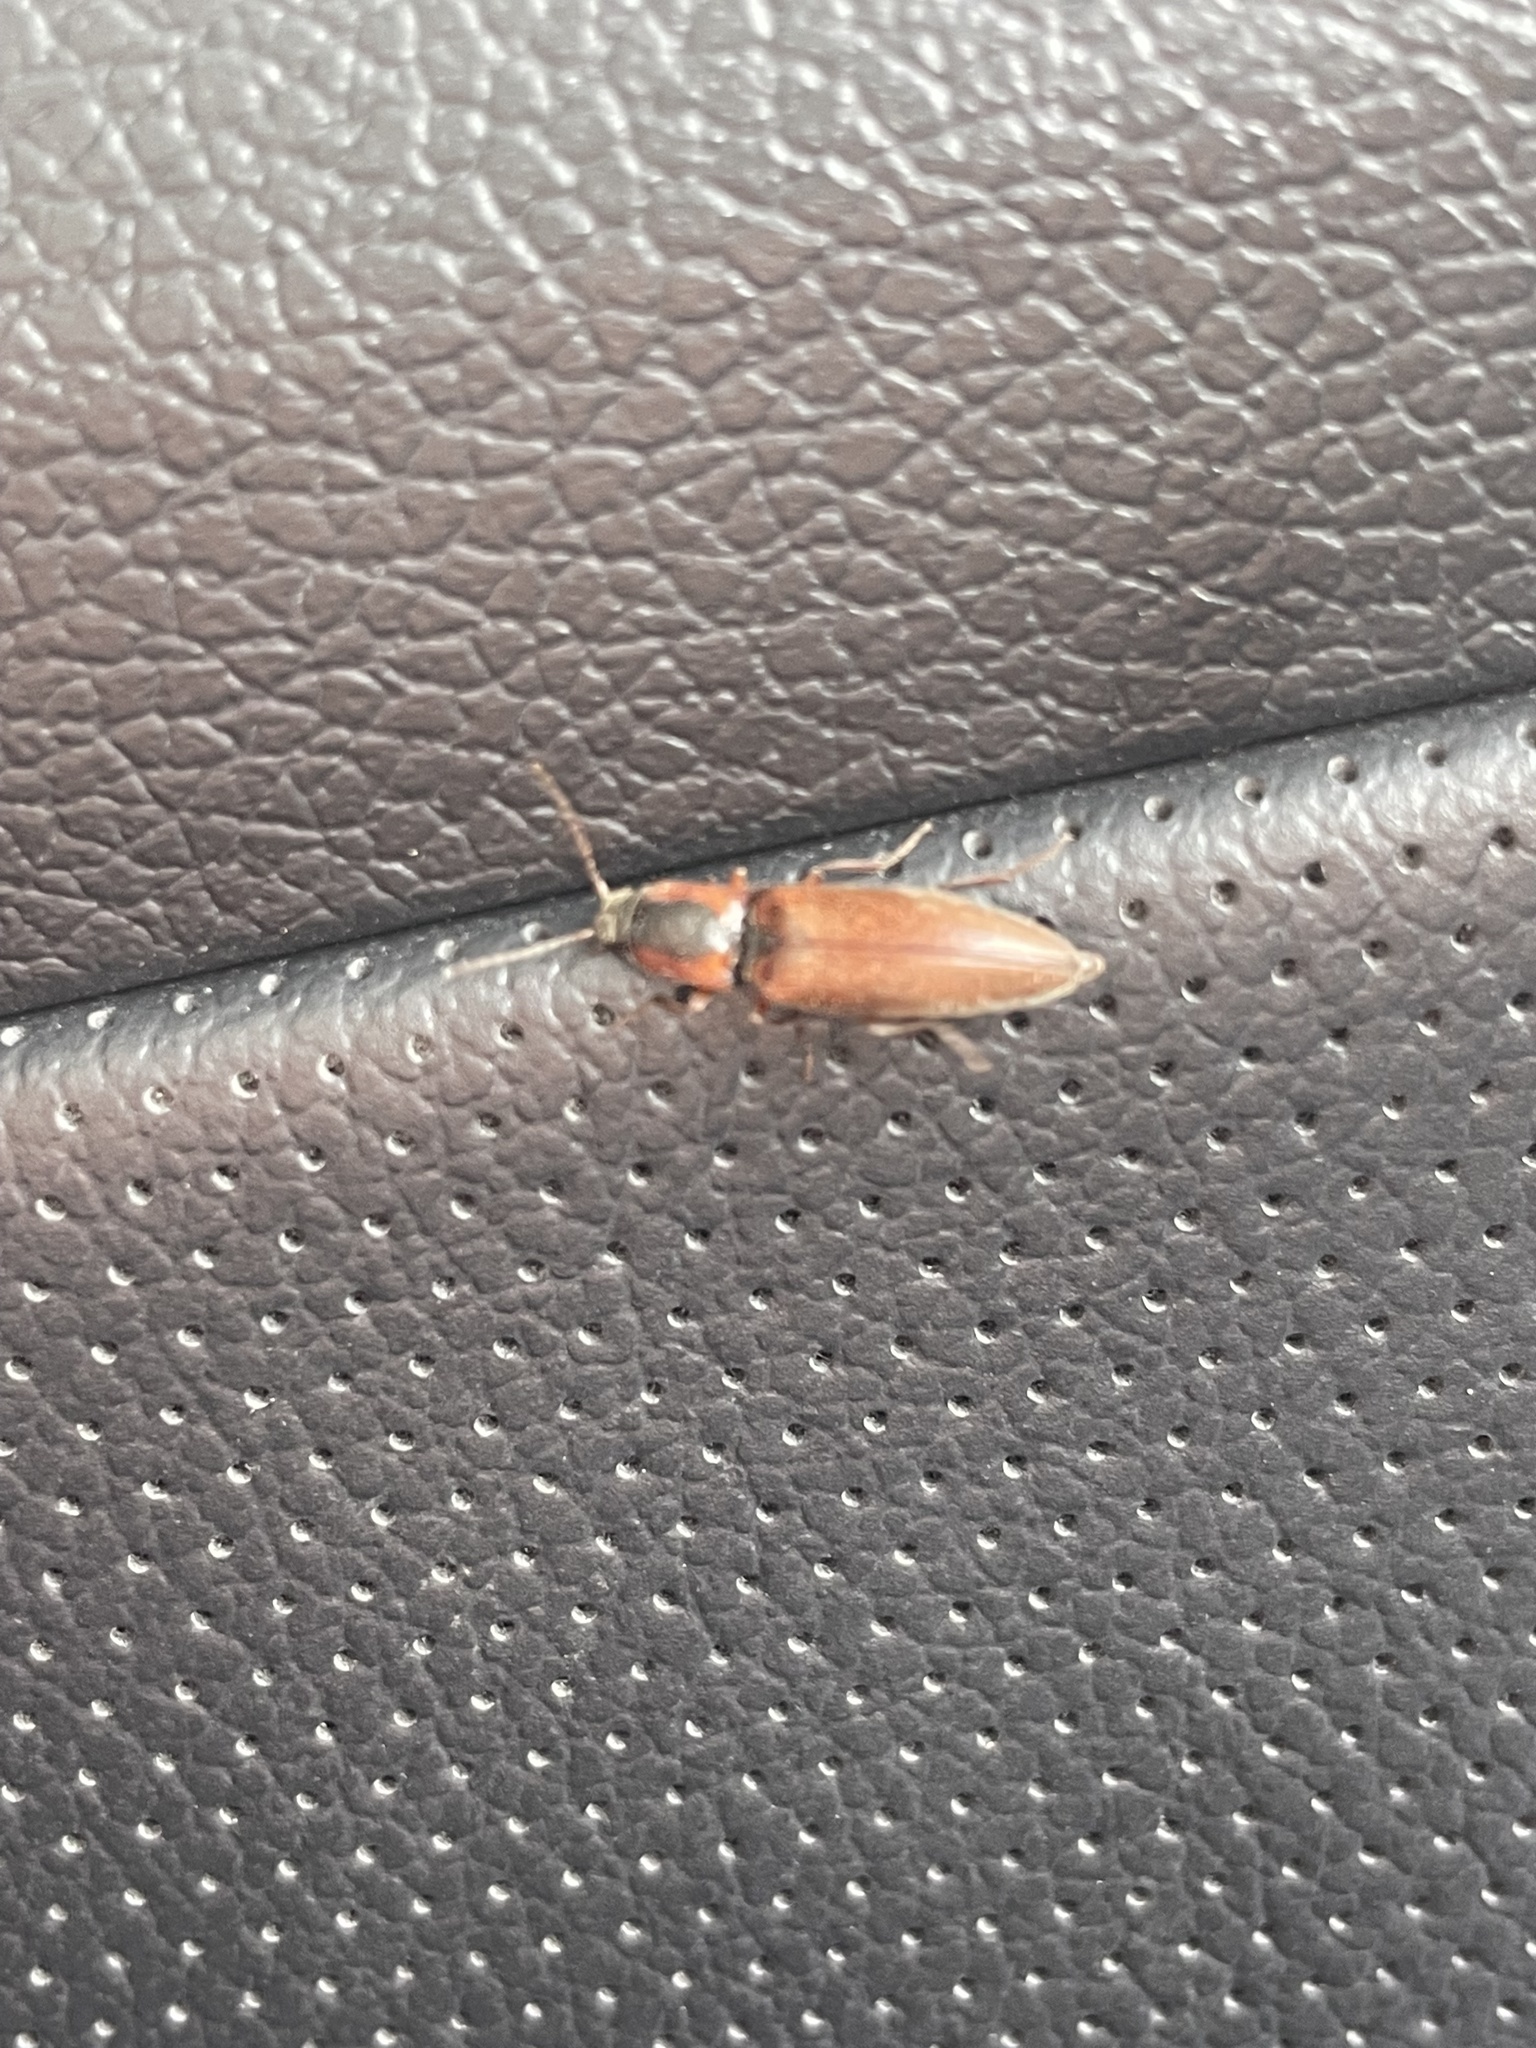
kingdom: Animalia
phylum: Arthropoda
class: Insecta
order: Coleoptera
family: Elateridae
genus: Agriotes
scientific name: Agriotes collaris
